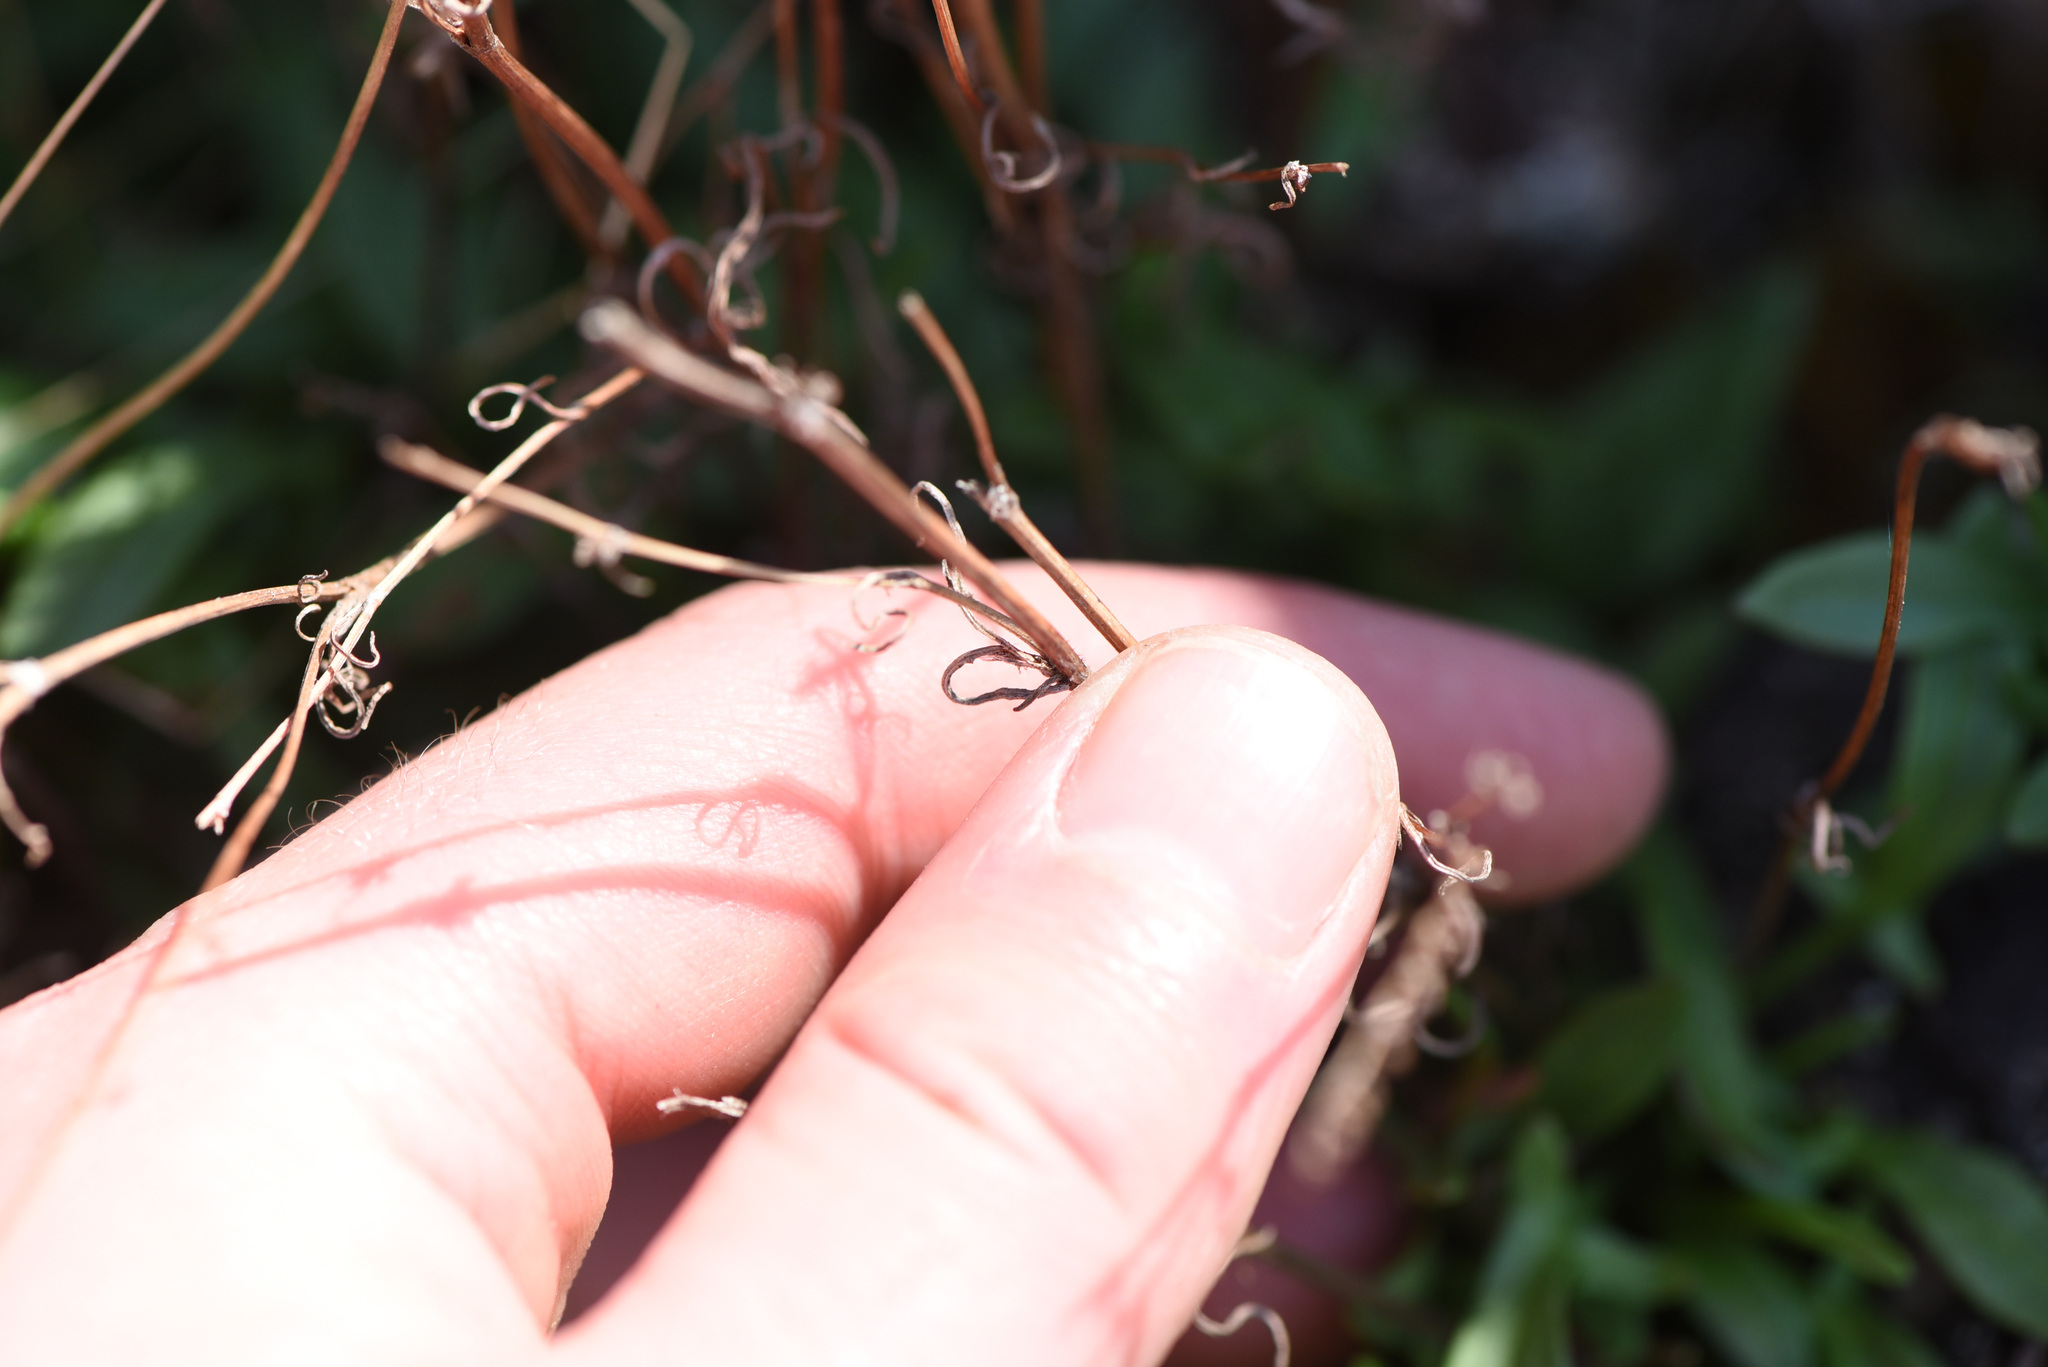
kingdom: Plantae
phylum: Tracheophyta
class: Magnoliopsida
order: Caryophyllales
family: Polygonaceae
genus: Rumex
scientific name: Rumex acetosella
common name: Common sheep sorrel
